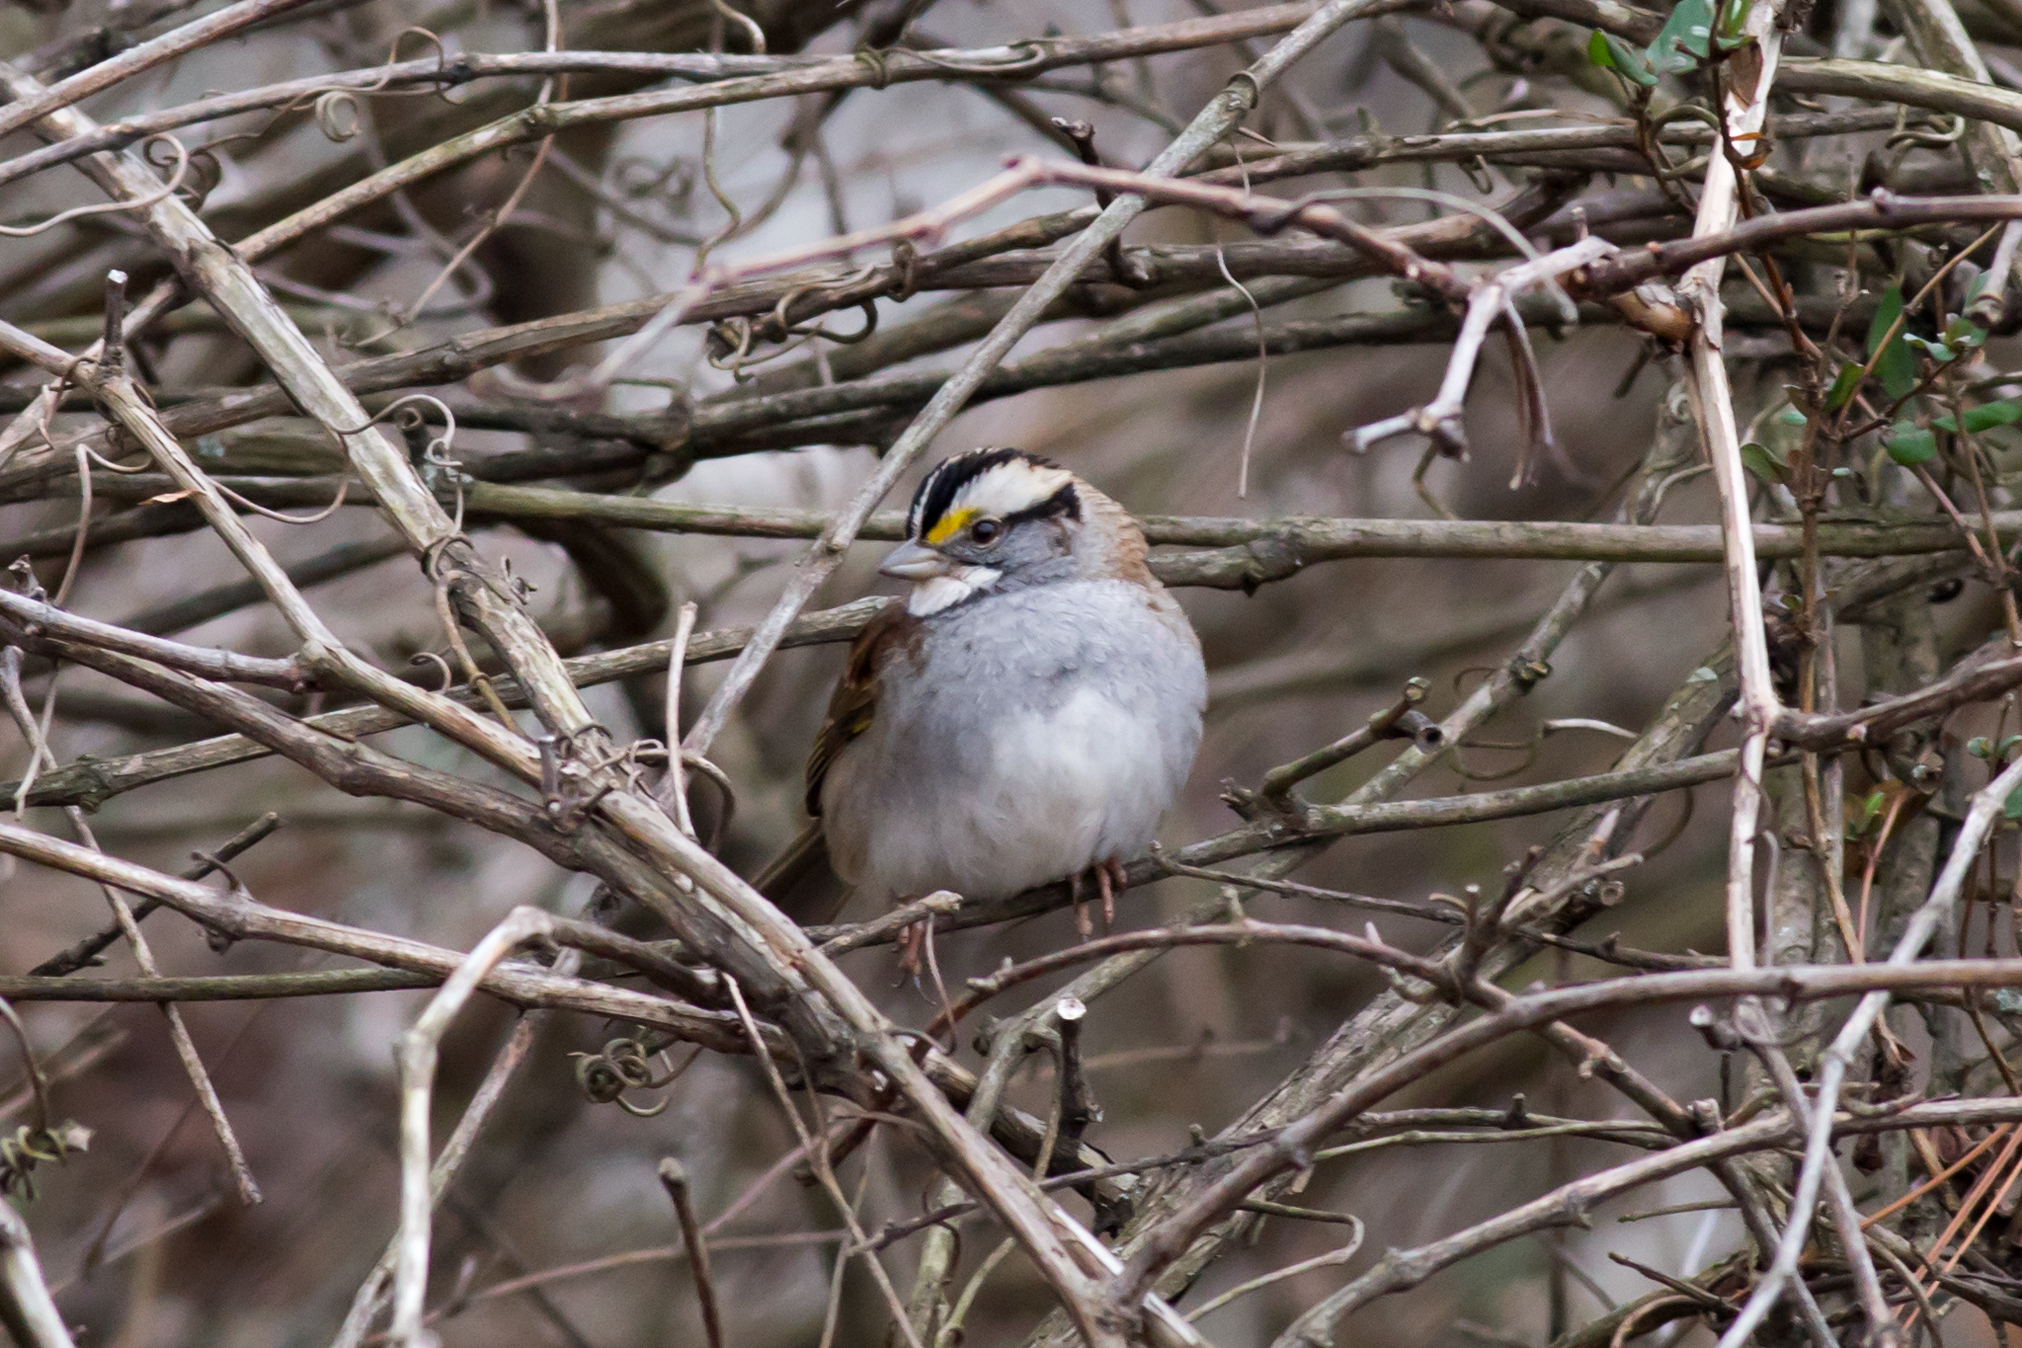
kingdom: Animalia
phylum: Chordata
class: Aves
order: Passeriformes
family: Passerellidae
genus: Zonotrichia
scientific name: Zonotrichia albicollis
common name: White-throated sparrow
